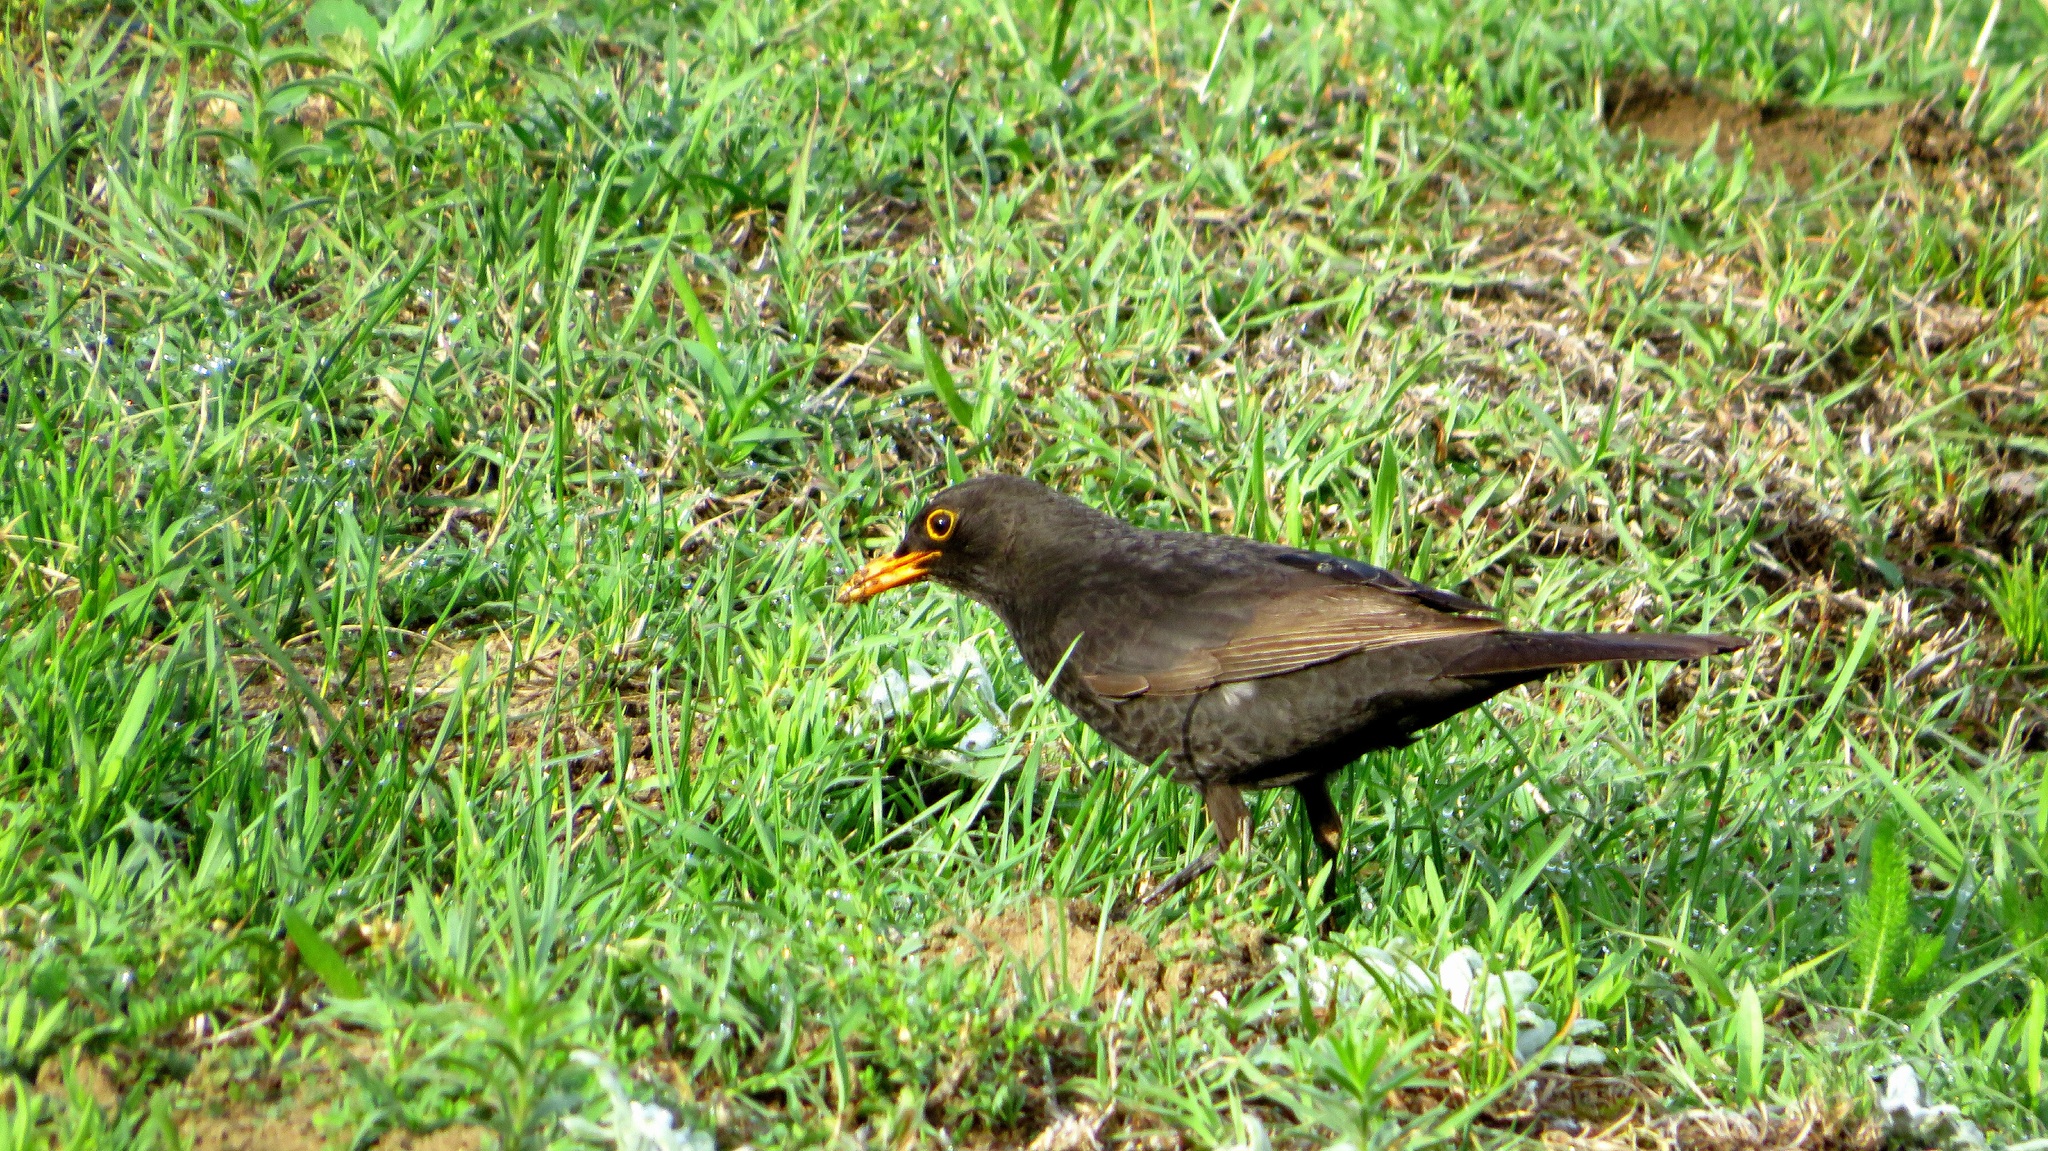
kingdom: Animalia
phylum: Chordata
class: Aves
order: Passeriformes
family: Turdidae
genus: Turdus
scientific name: Turdus merula
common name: Common blackbird
